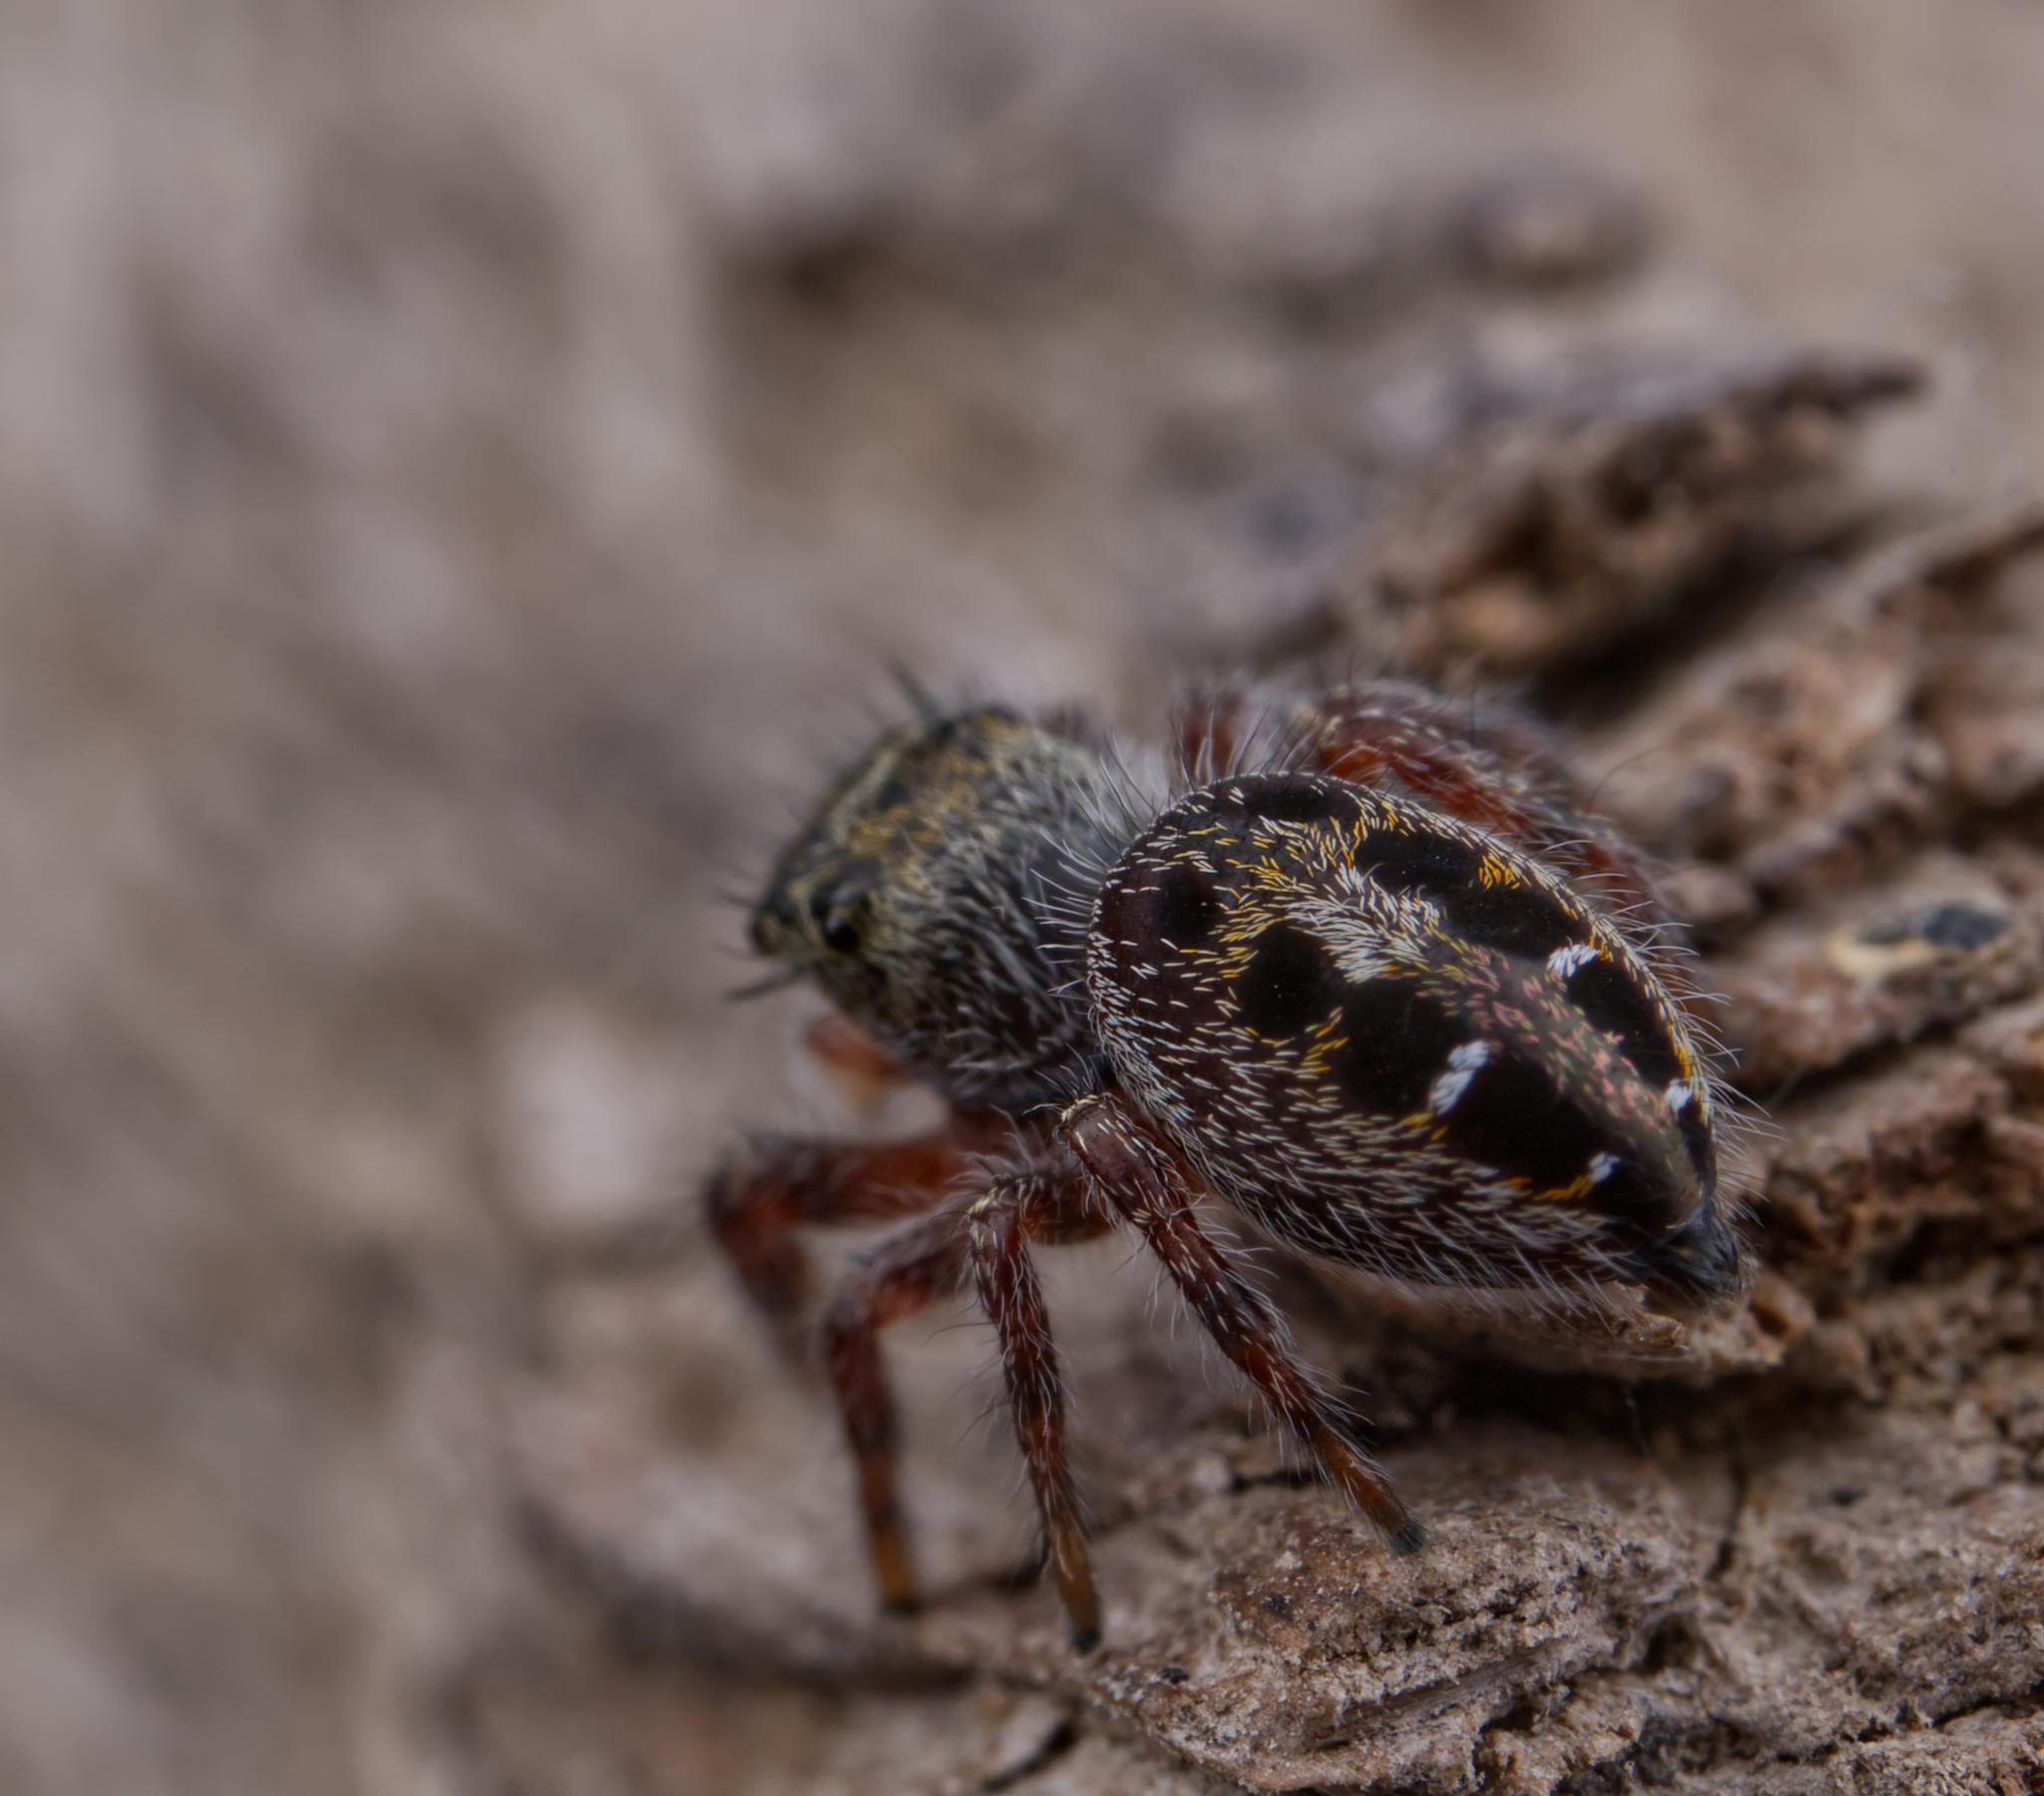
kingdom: Animalia
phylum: Arthropoda
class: Arachnida
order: Araneae
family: Salticidae
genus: Phidippus
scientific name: Phidippus insignarius
